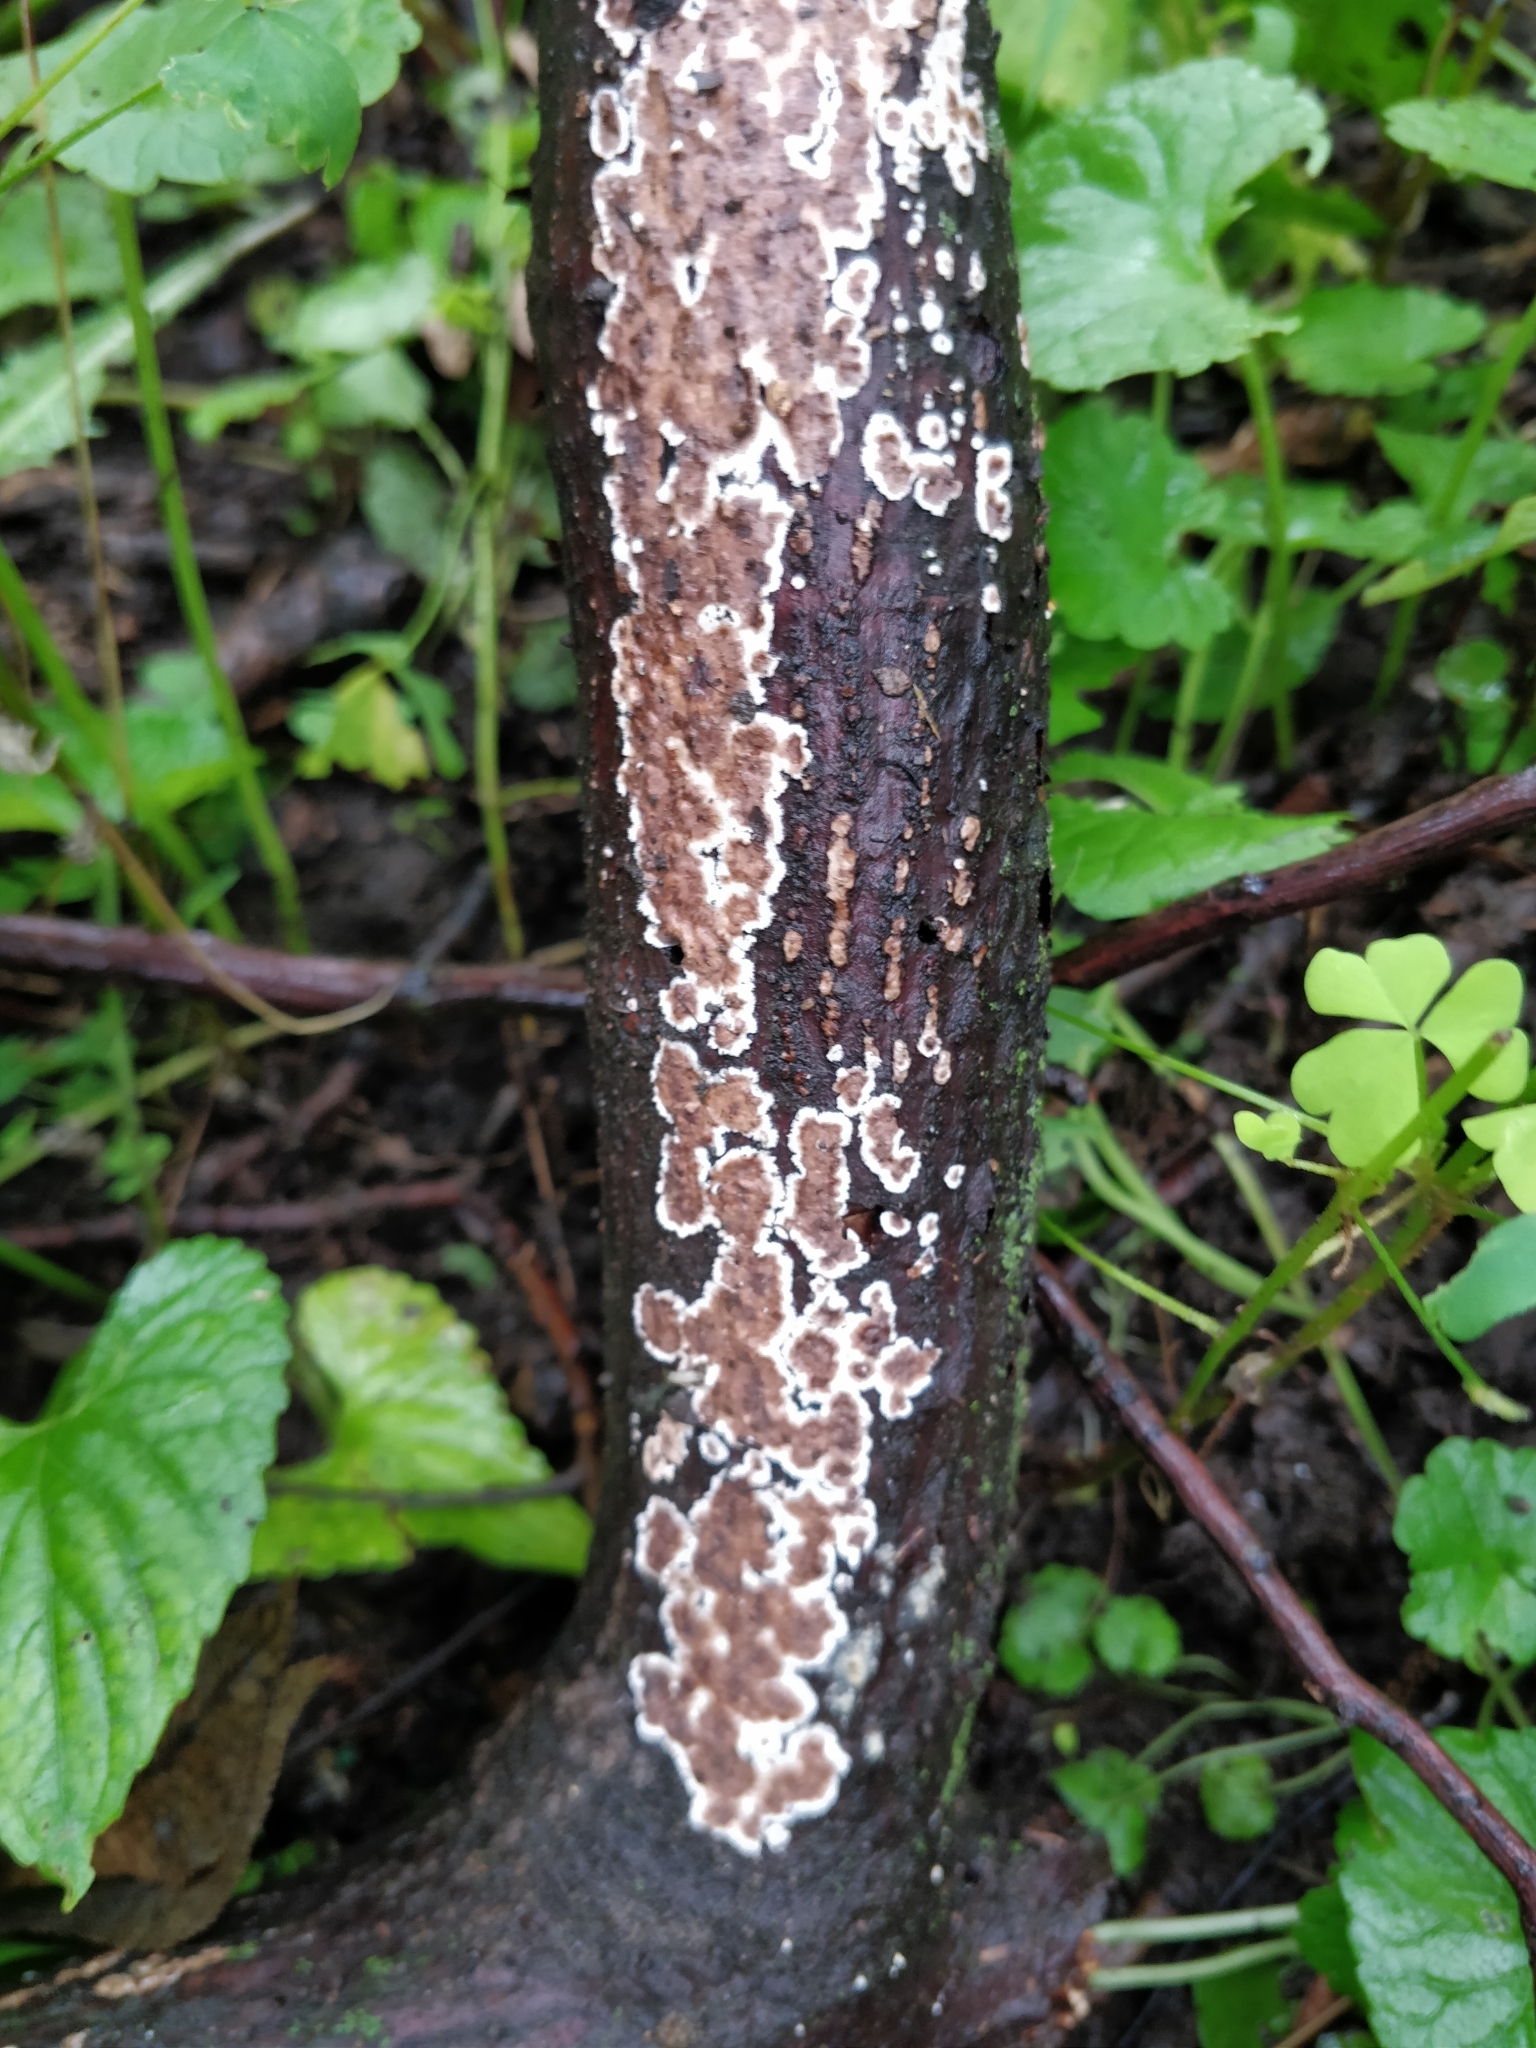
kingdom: Fungi
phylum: Basidiomycota
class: Agaricomycetes
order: Russulales
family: Peniophoraceae
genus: Peniophora
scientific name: Peniophora albobadia
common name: Giraffe spots
